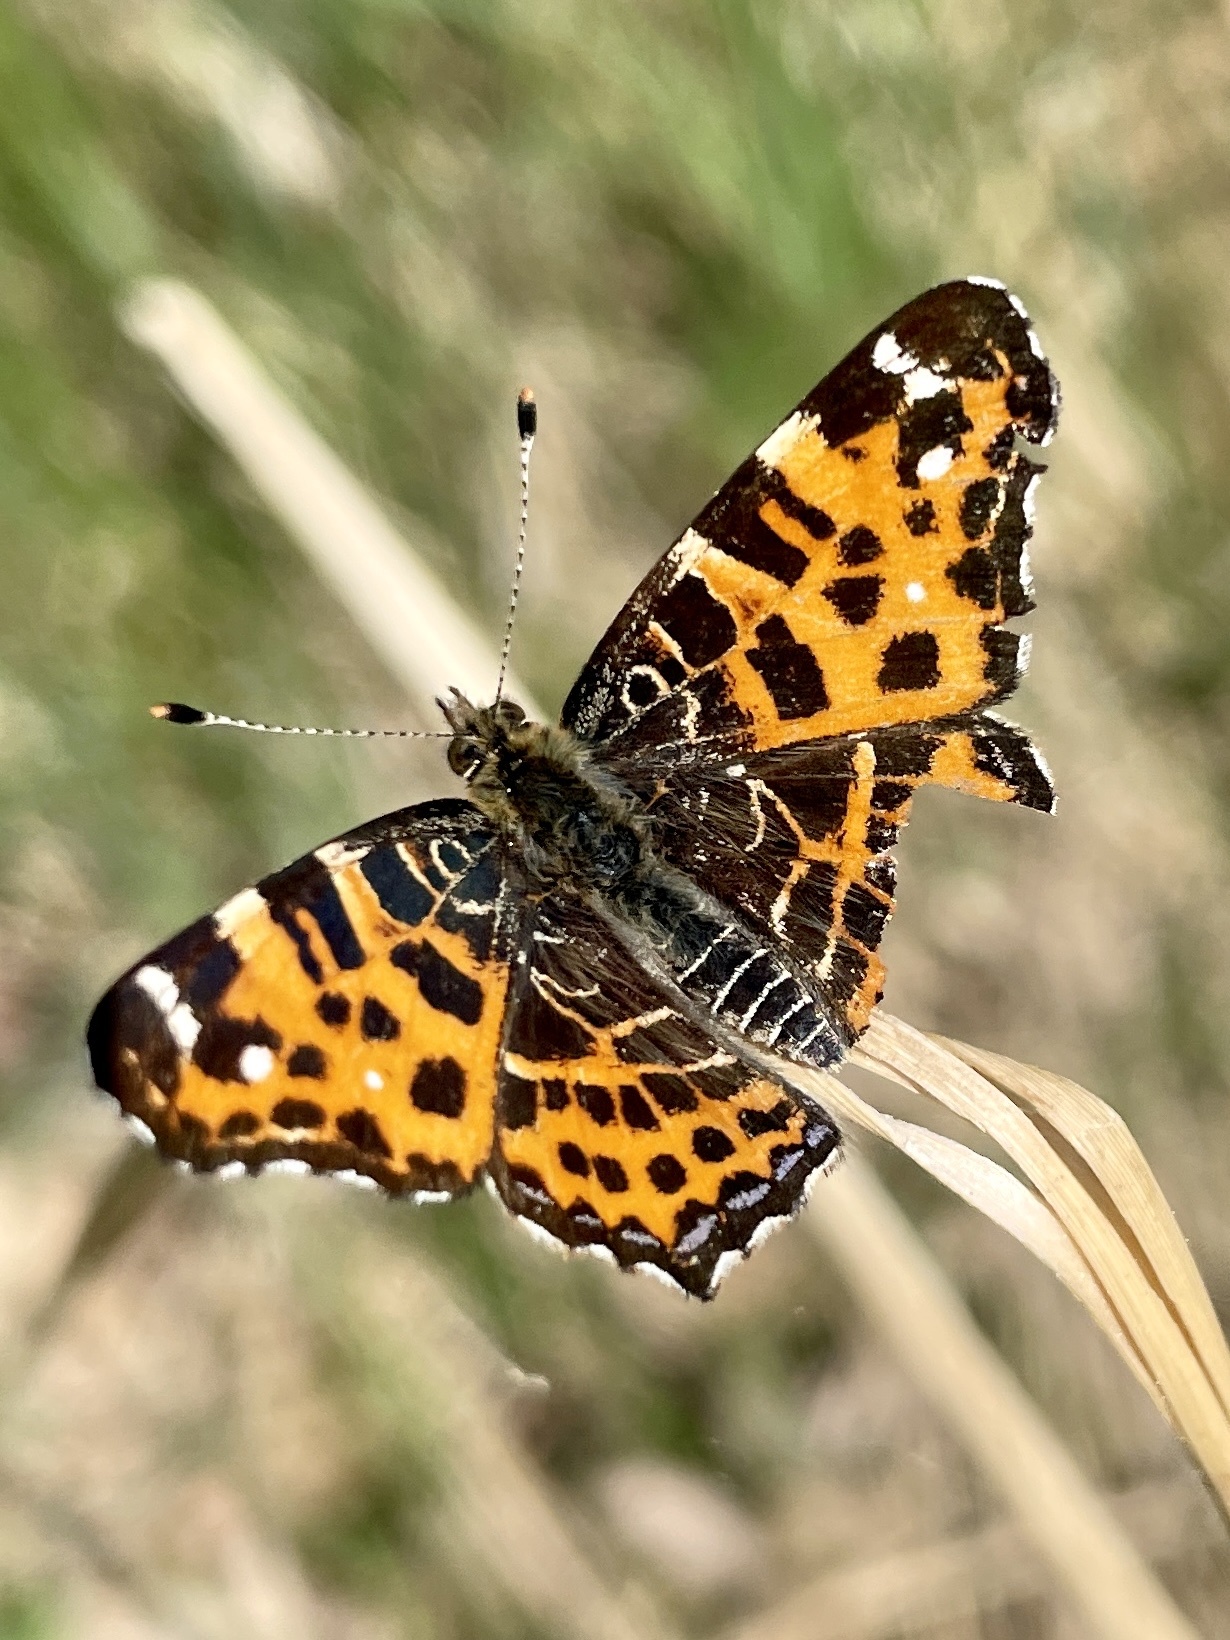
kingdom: Animalia
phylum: Arthropoda
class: Insecta
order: Lepidoptera
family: Nymphalidae
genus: Araschnia
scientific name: Araschnia levana
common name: Map butterfly
